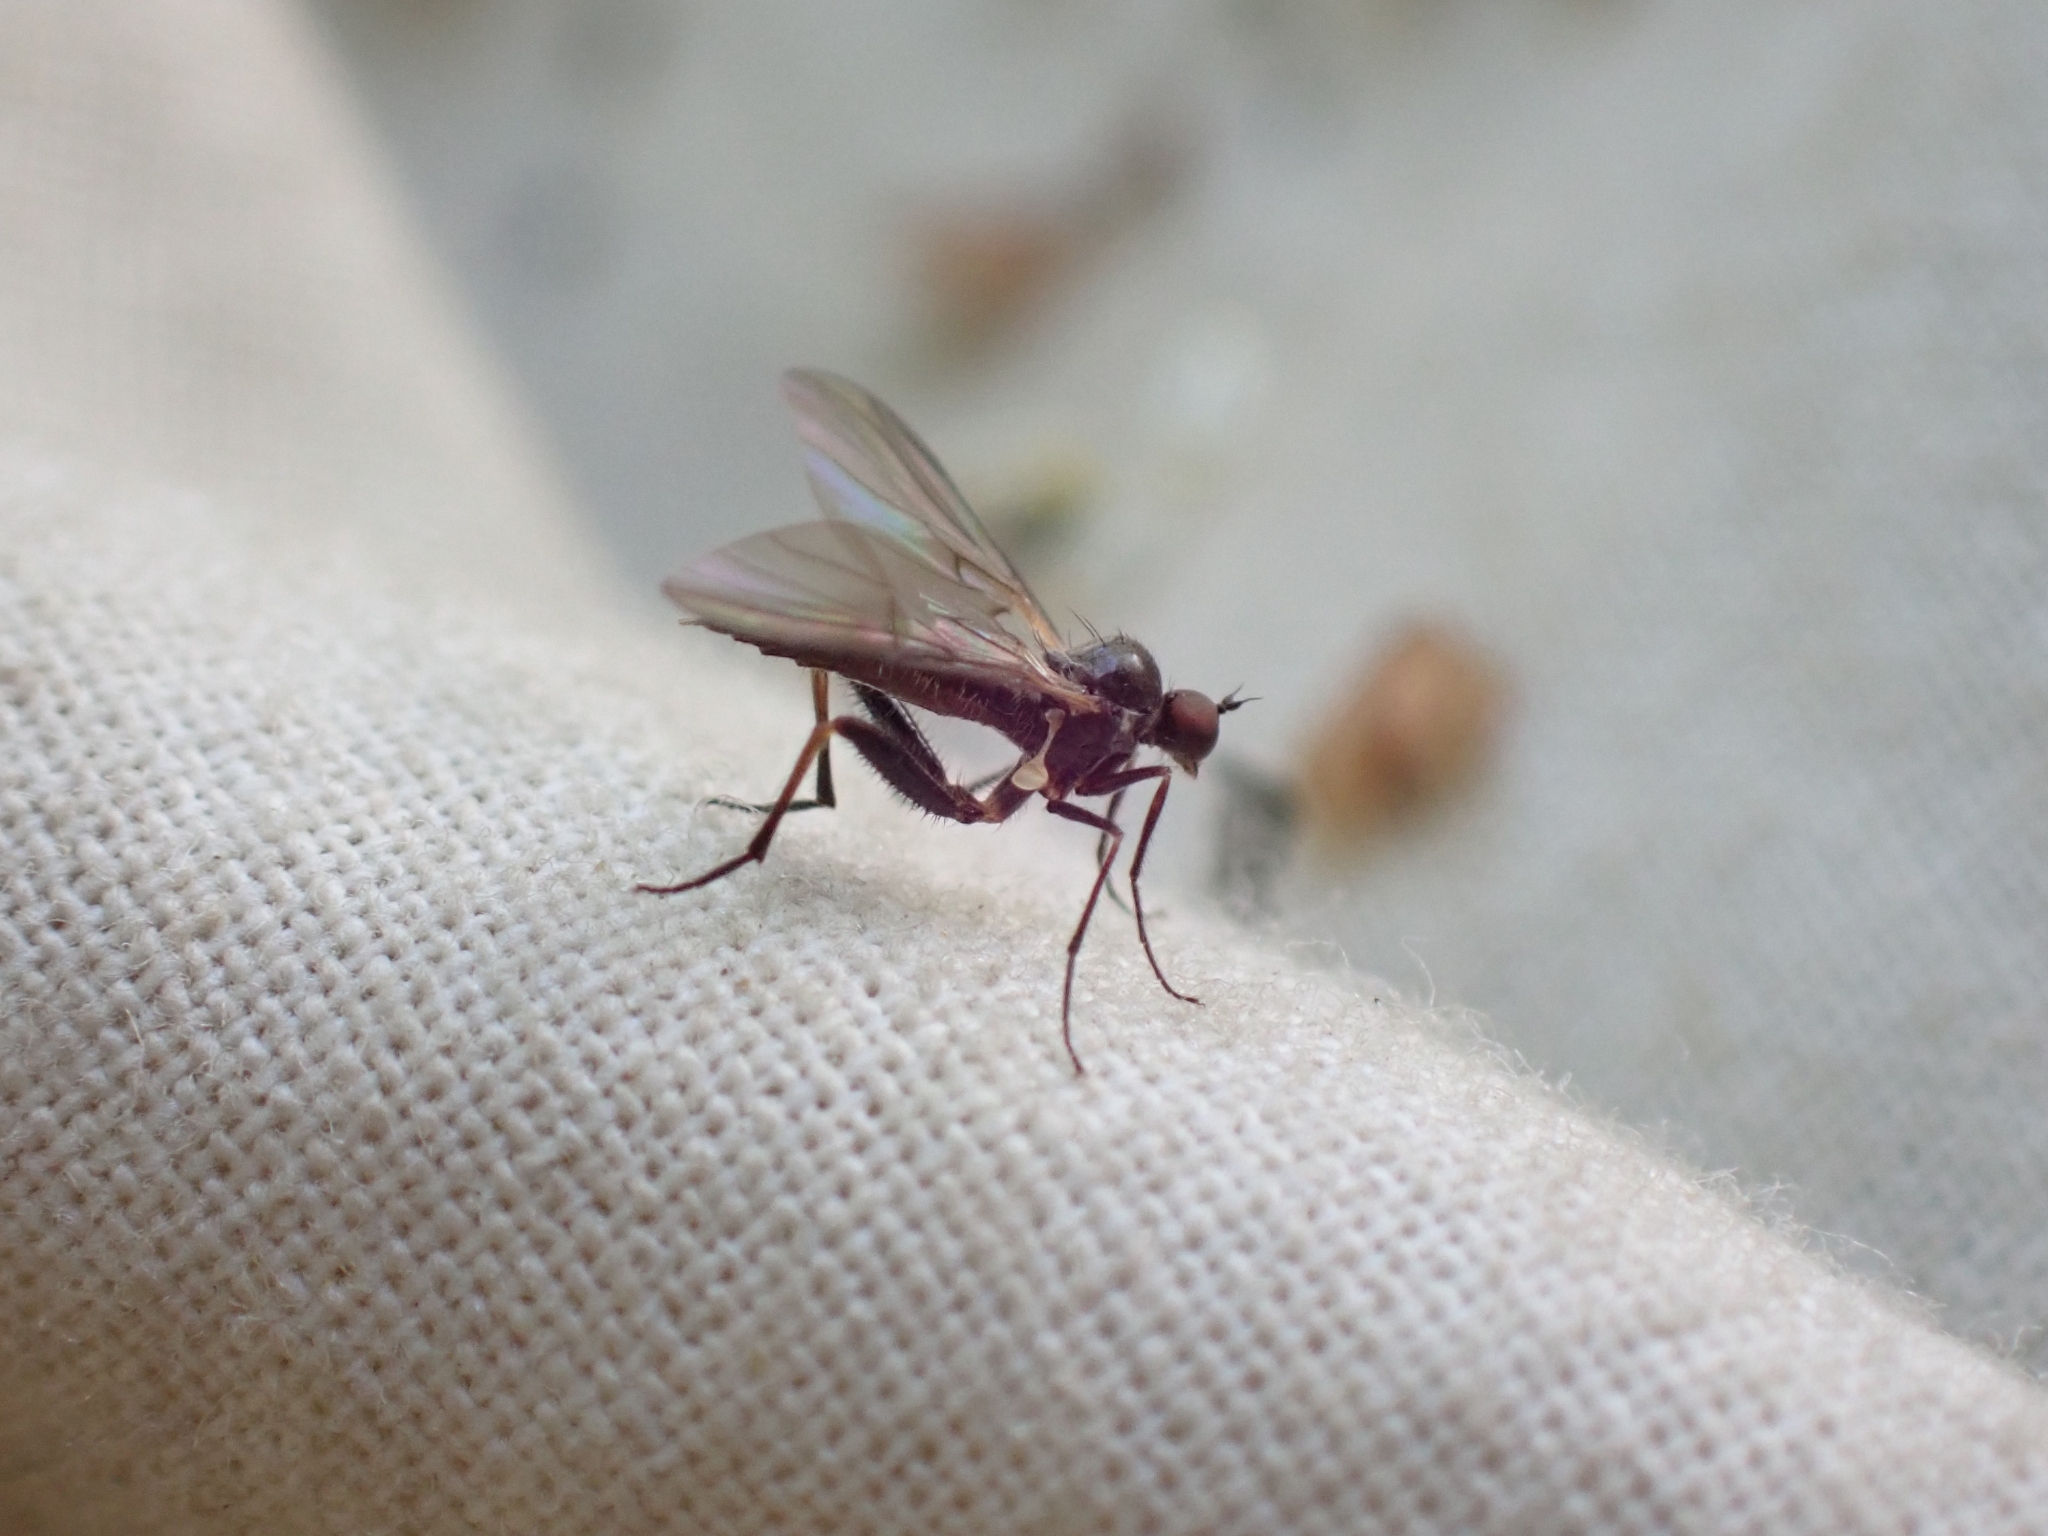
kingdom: Animalia
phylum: Arthropoda
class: Insecta
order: Diptera
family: Hybotidae
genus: Hoplocyrtoma
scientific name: Hoplocyrtoma procera
